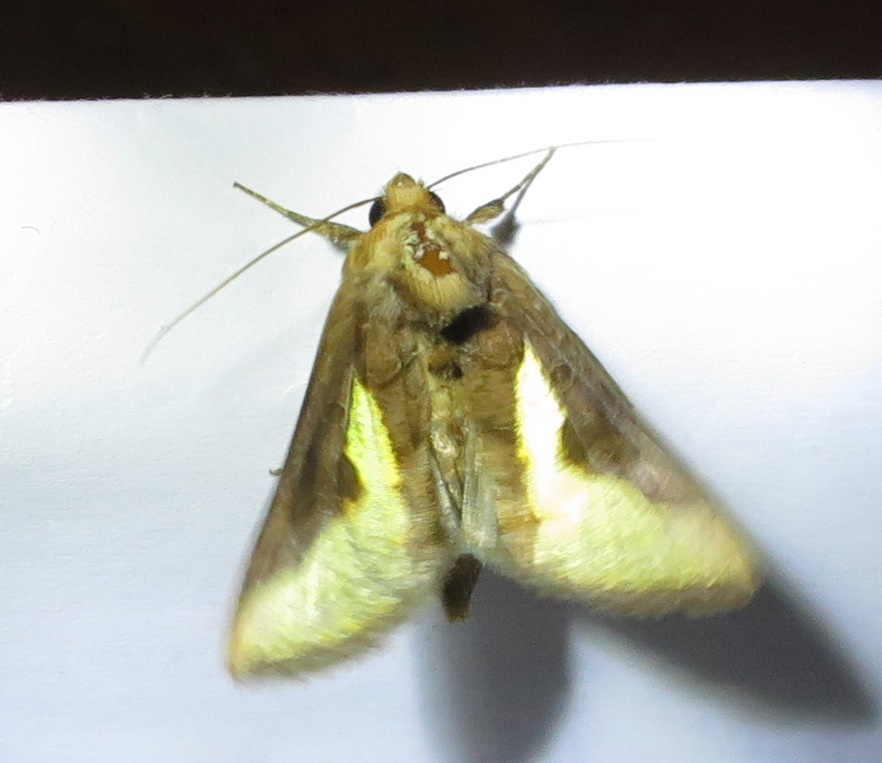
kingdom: Animalia
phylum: Arthropoda
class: Insecta
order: Lepidoptera
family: Noctuidae
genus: Thysanoplusia
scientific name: Thysanoplusia orichalcea
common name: Slender burnished brass, golden plusia
